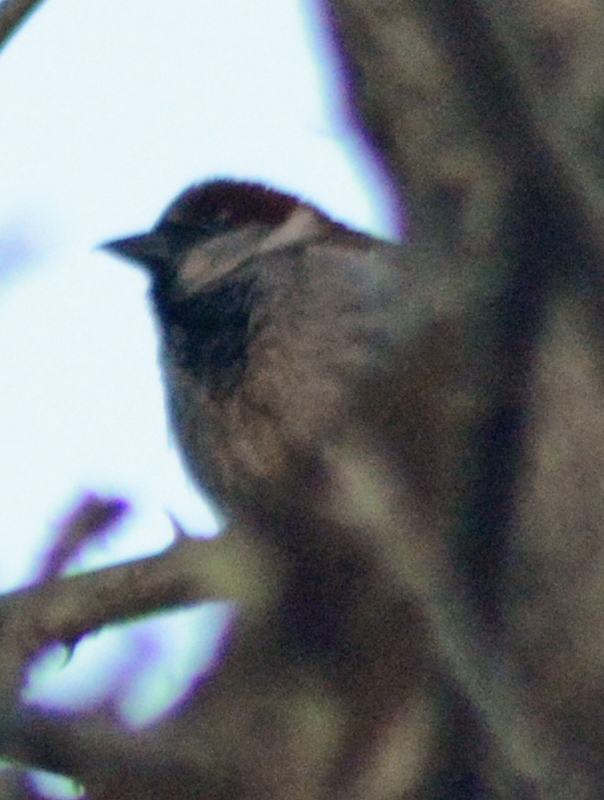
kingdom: Animalia
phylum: Chordata
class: Aves
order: Passeriformes
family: Passeridae
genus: Passer
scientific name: Passer domesticus
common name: House sparrow
